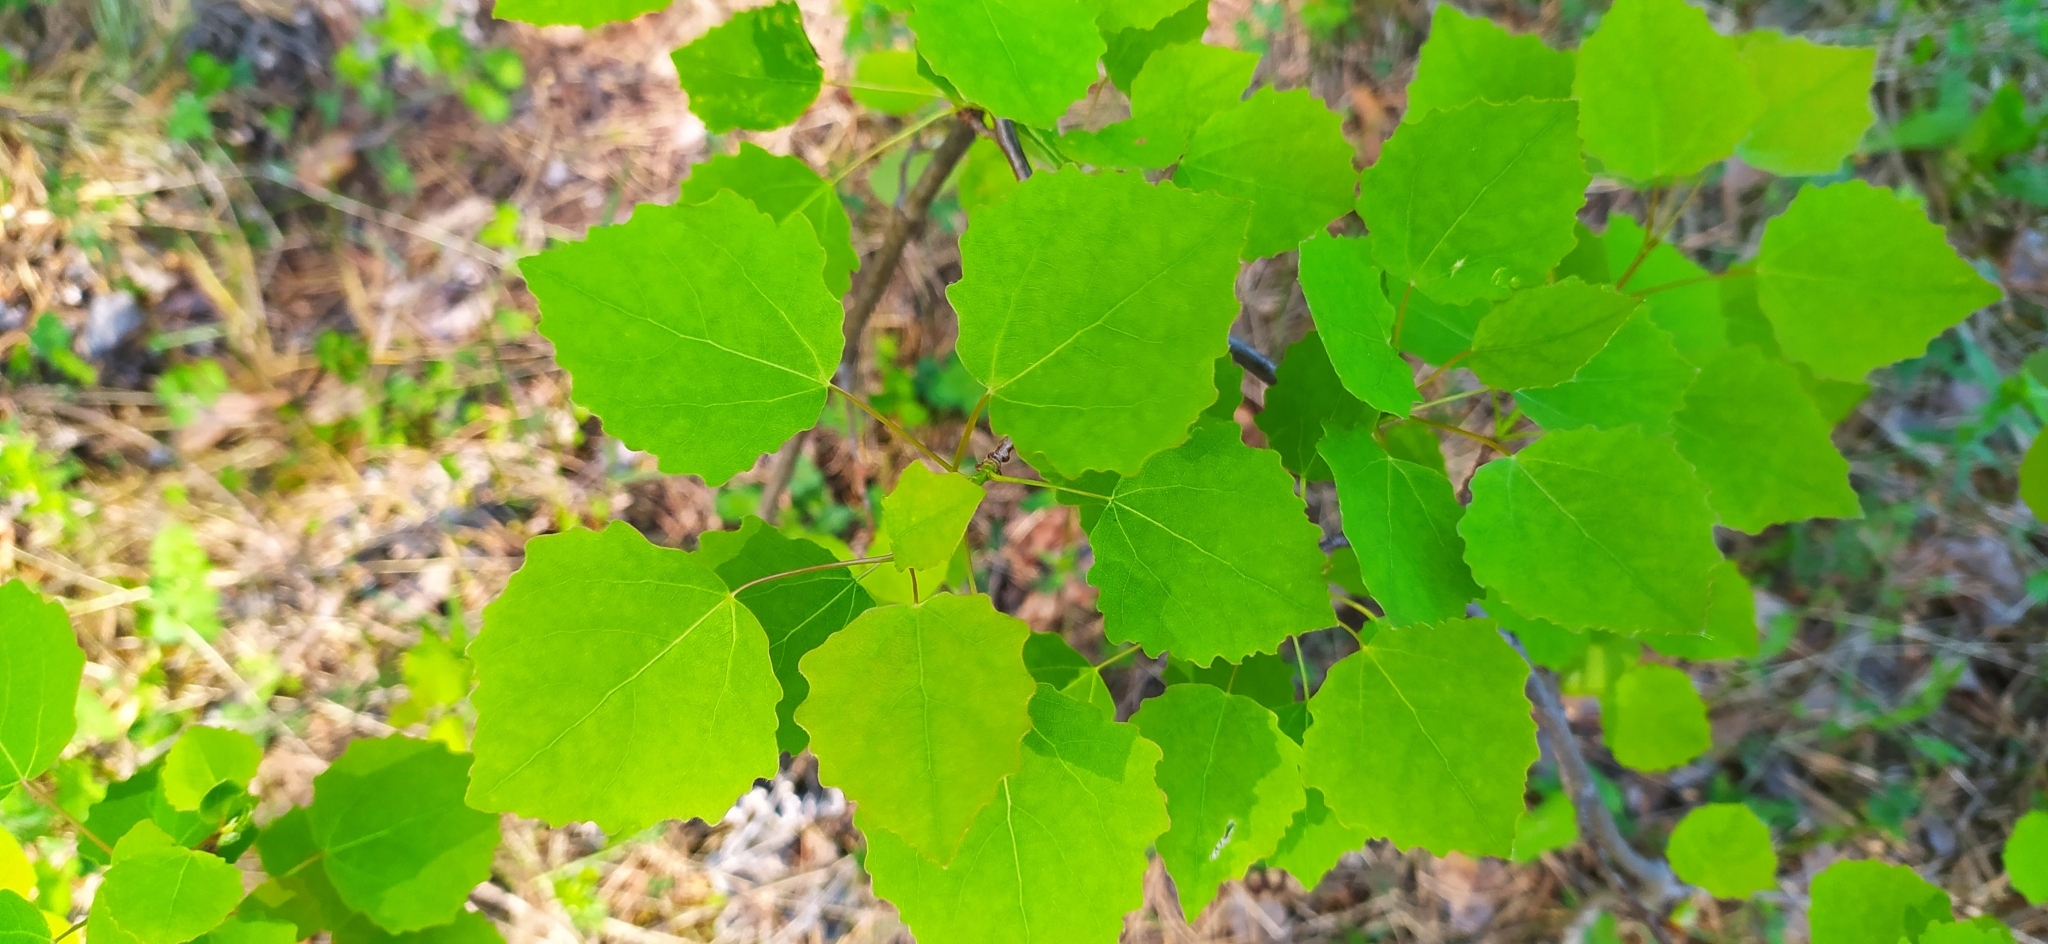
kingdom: Plantae
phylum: Tracheophyta
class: Magnoliopsida
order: Malpighiales
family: Salicaceae
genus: Populus
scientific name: Populus tremula
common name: European aspen
